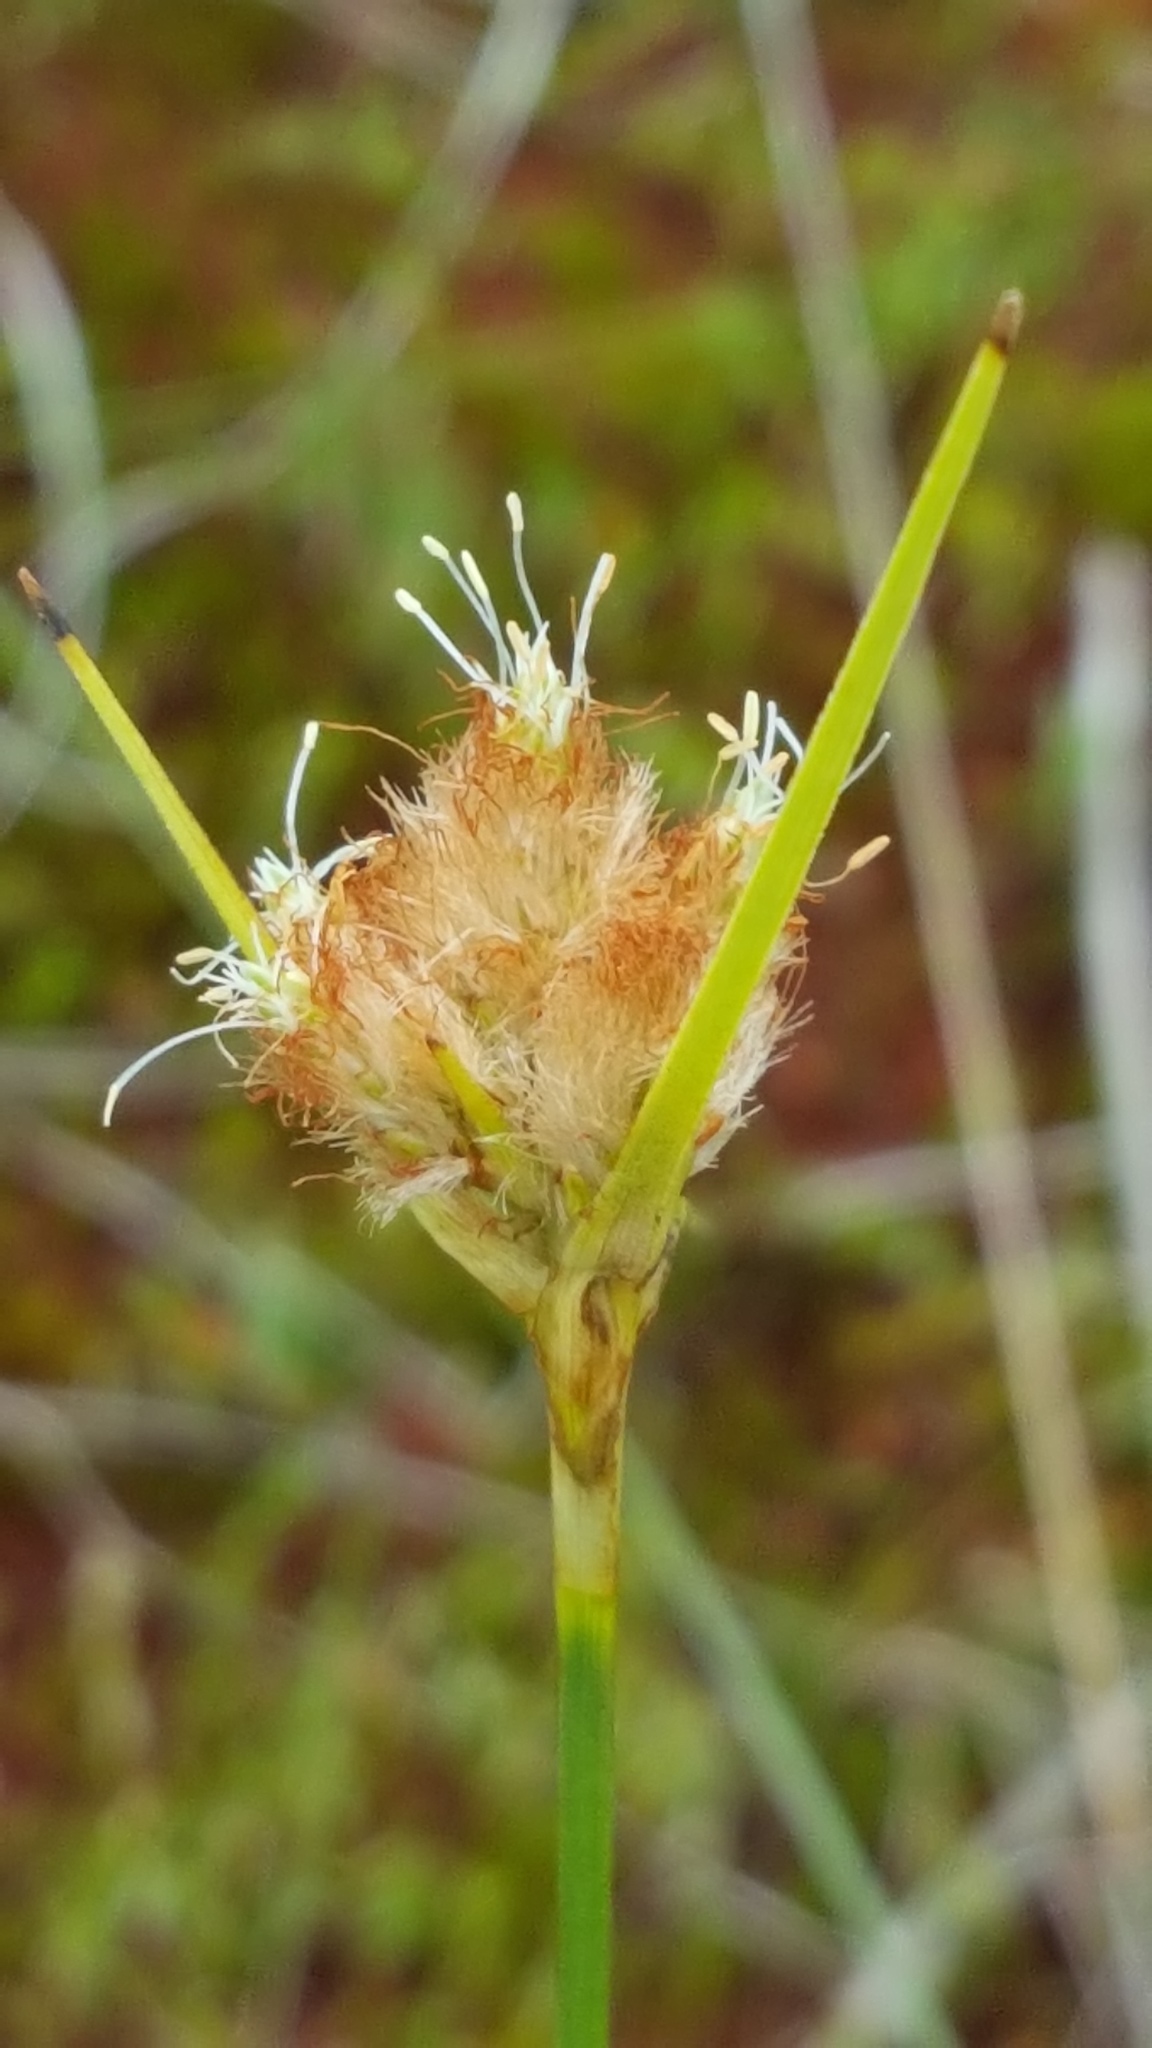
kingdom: Plantae
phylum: Tracheophyta
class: Liliopsida
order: Poales
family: Cyperaceae
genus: Eriophorum
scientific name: Eriophorum virginicum
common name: Tawny cottongrass
